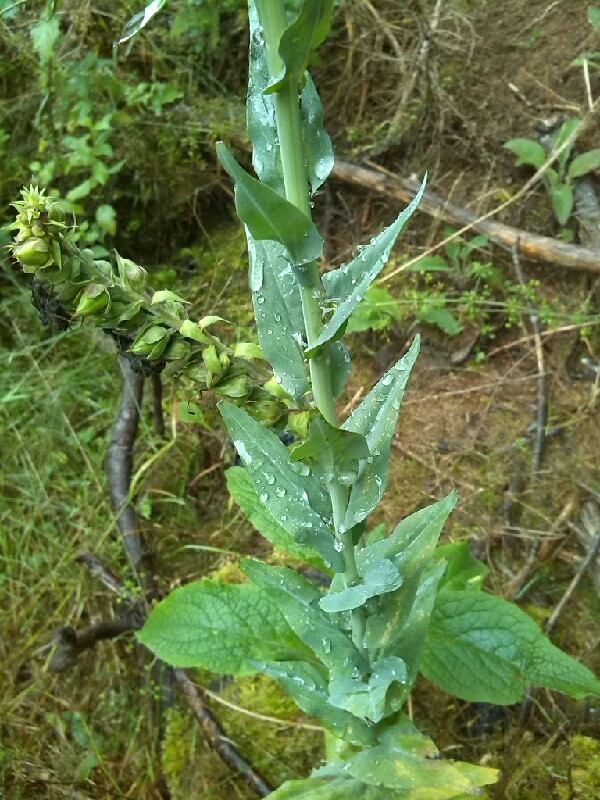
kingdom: Plantae
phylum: Tracheophyta
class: Magnoliopsida
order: Brassicales
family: Brassicaceae
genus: Turritis
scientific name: Turritis glabra
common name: Tower rockcress
